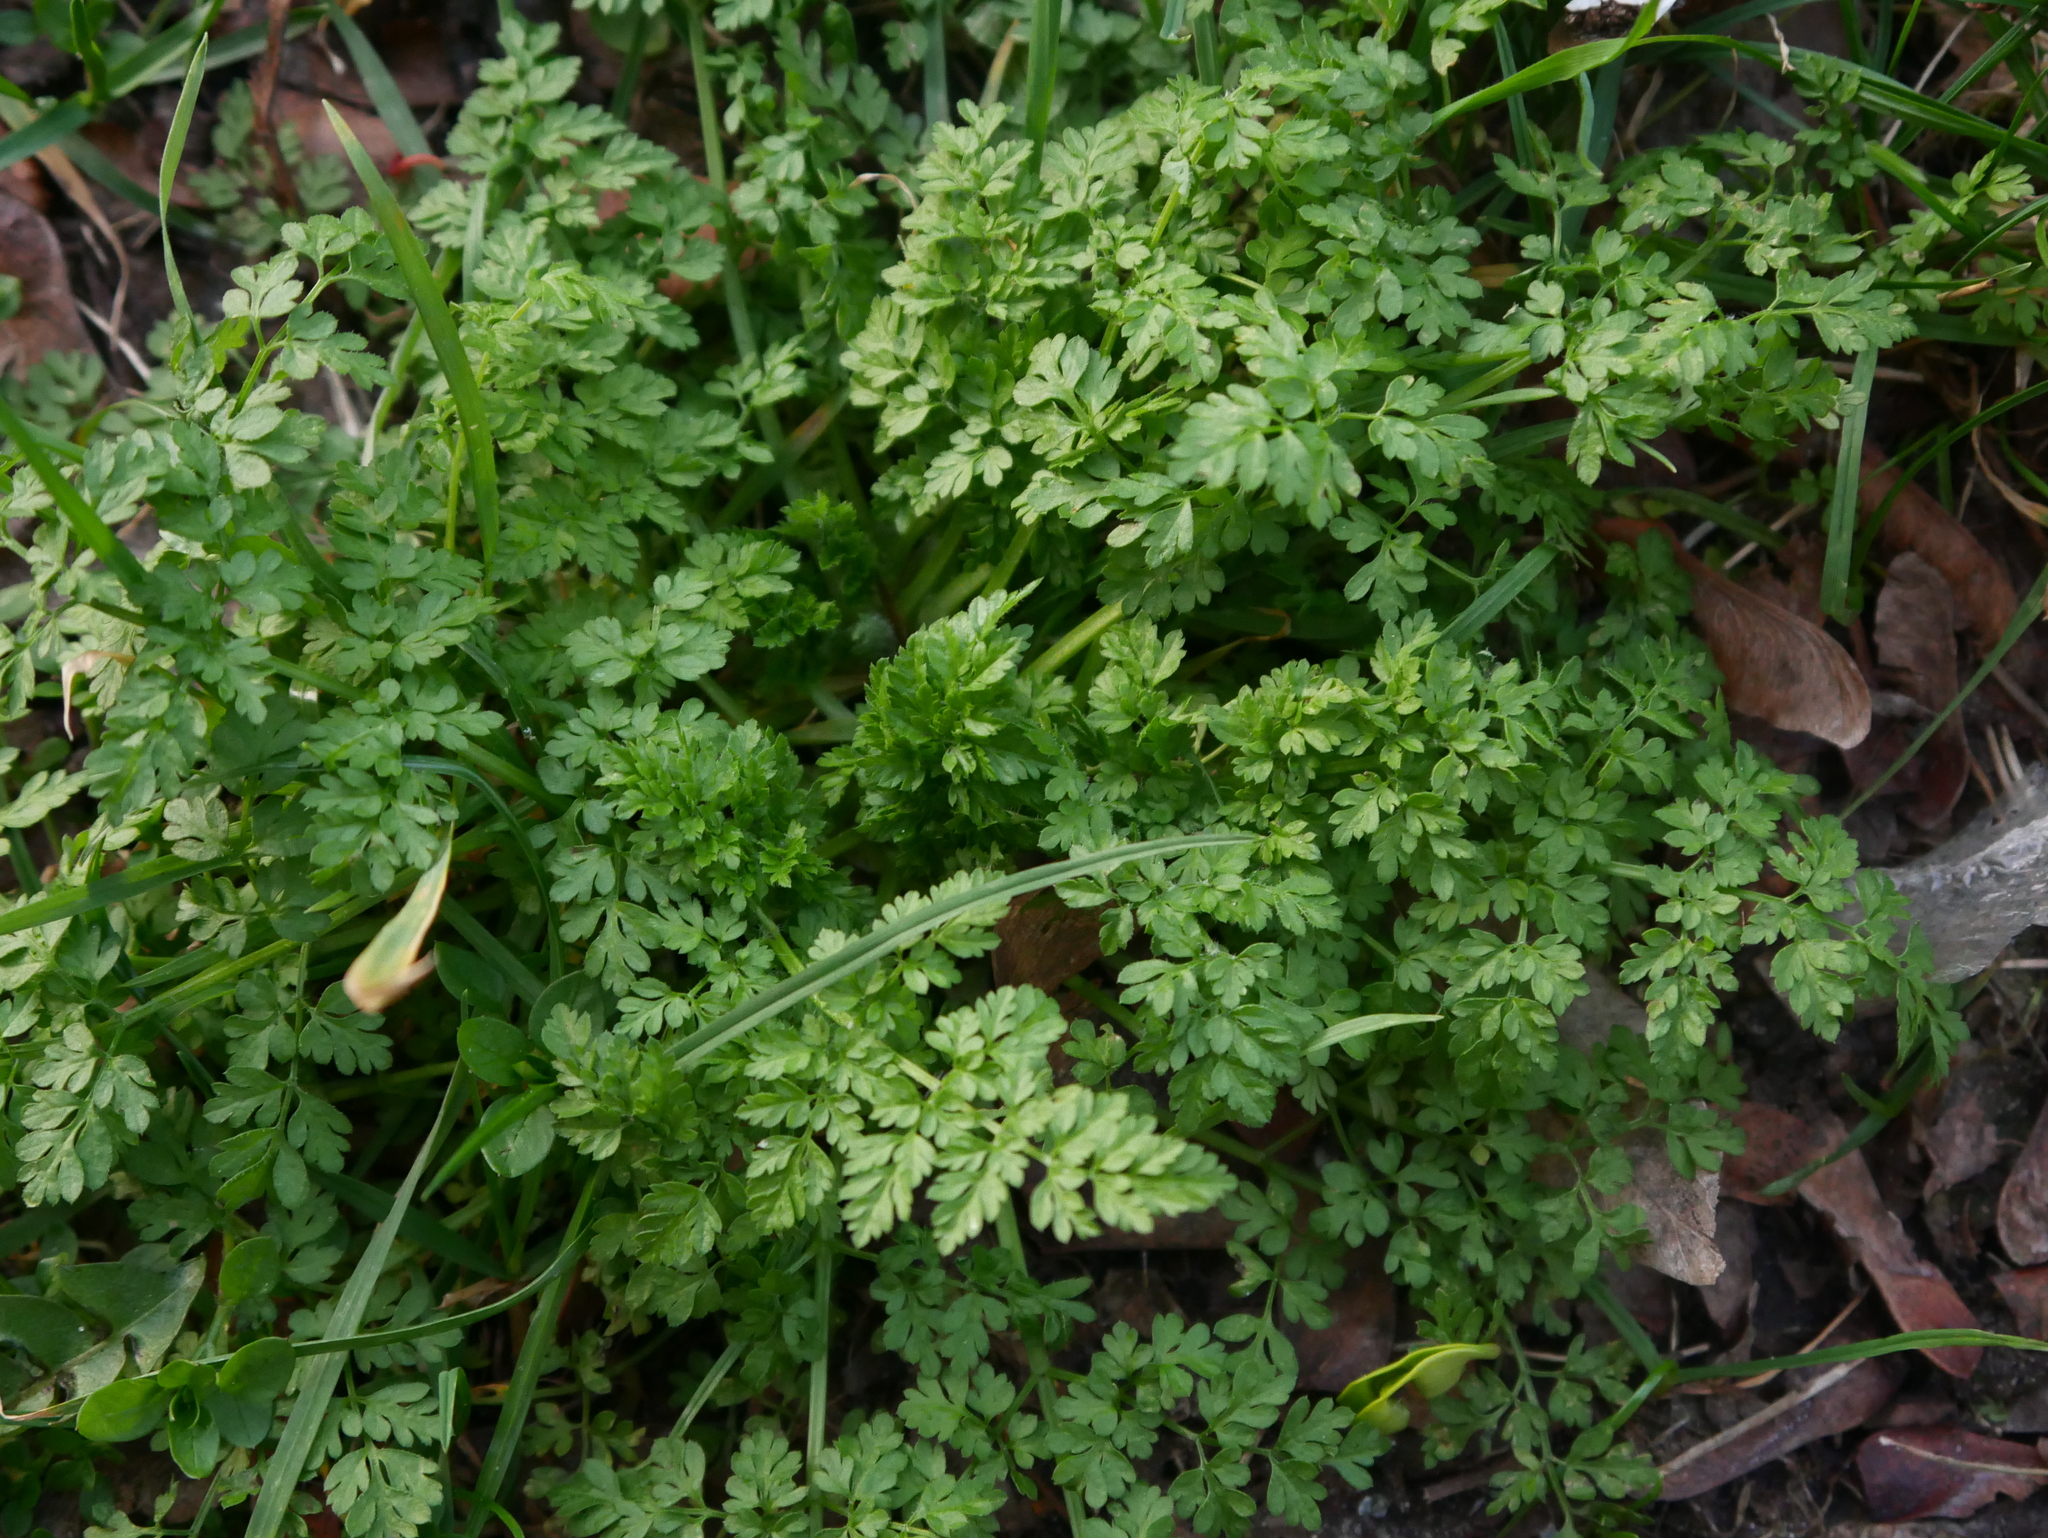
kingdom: Plantae
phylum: Tracheophyta
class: Magnoliopsida
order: Apiales
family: Apiaceae
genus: Anthriscus
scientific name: Anthriscus caucalis
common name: Bur chervil
